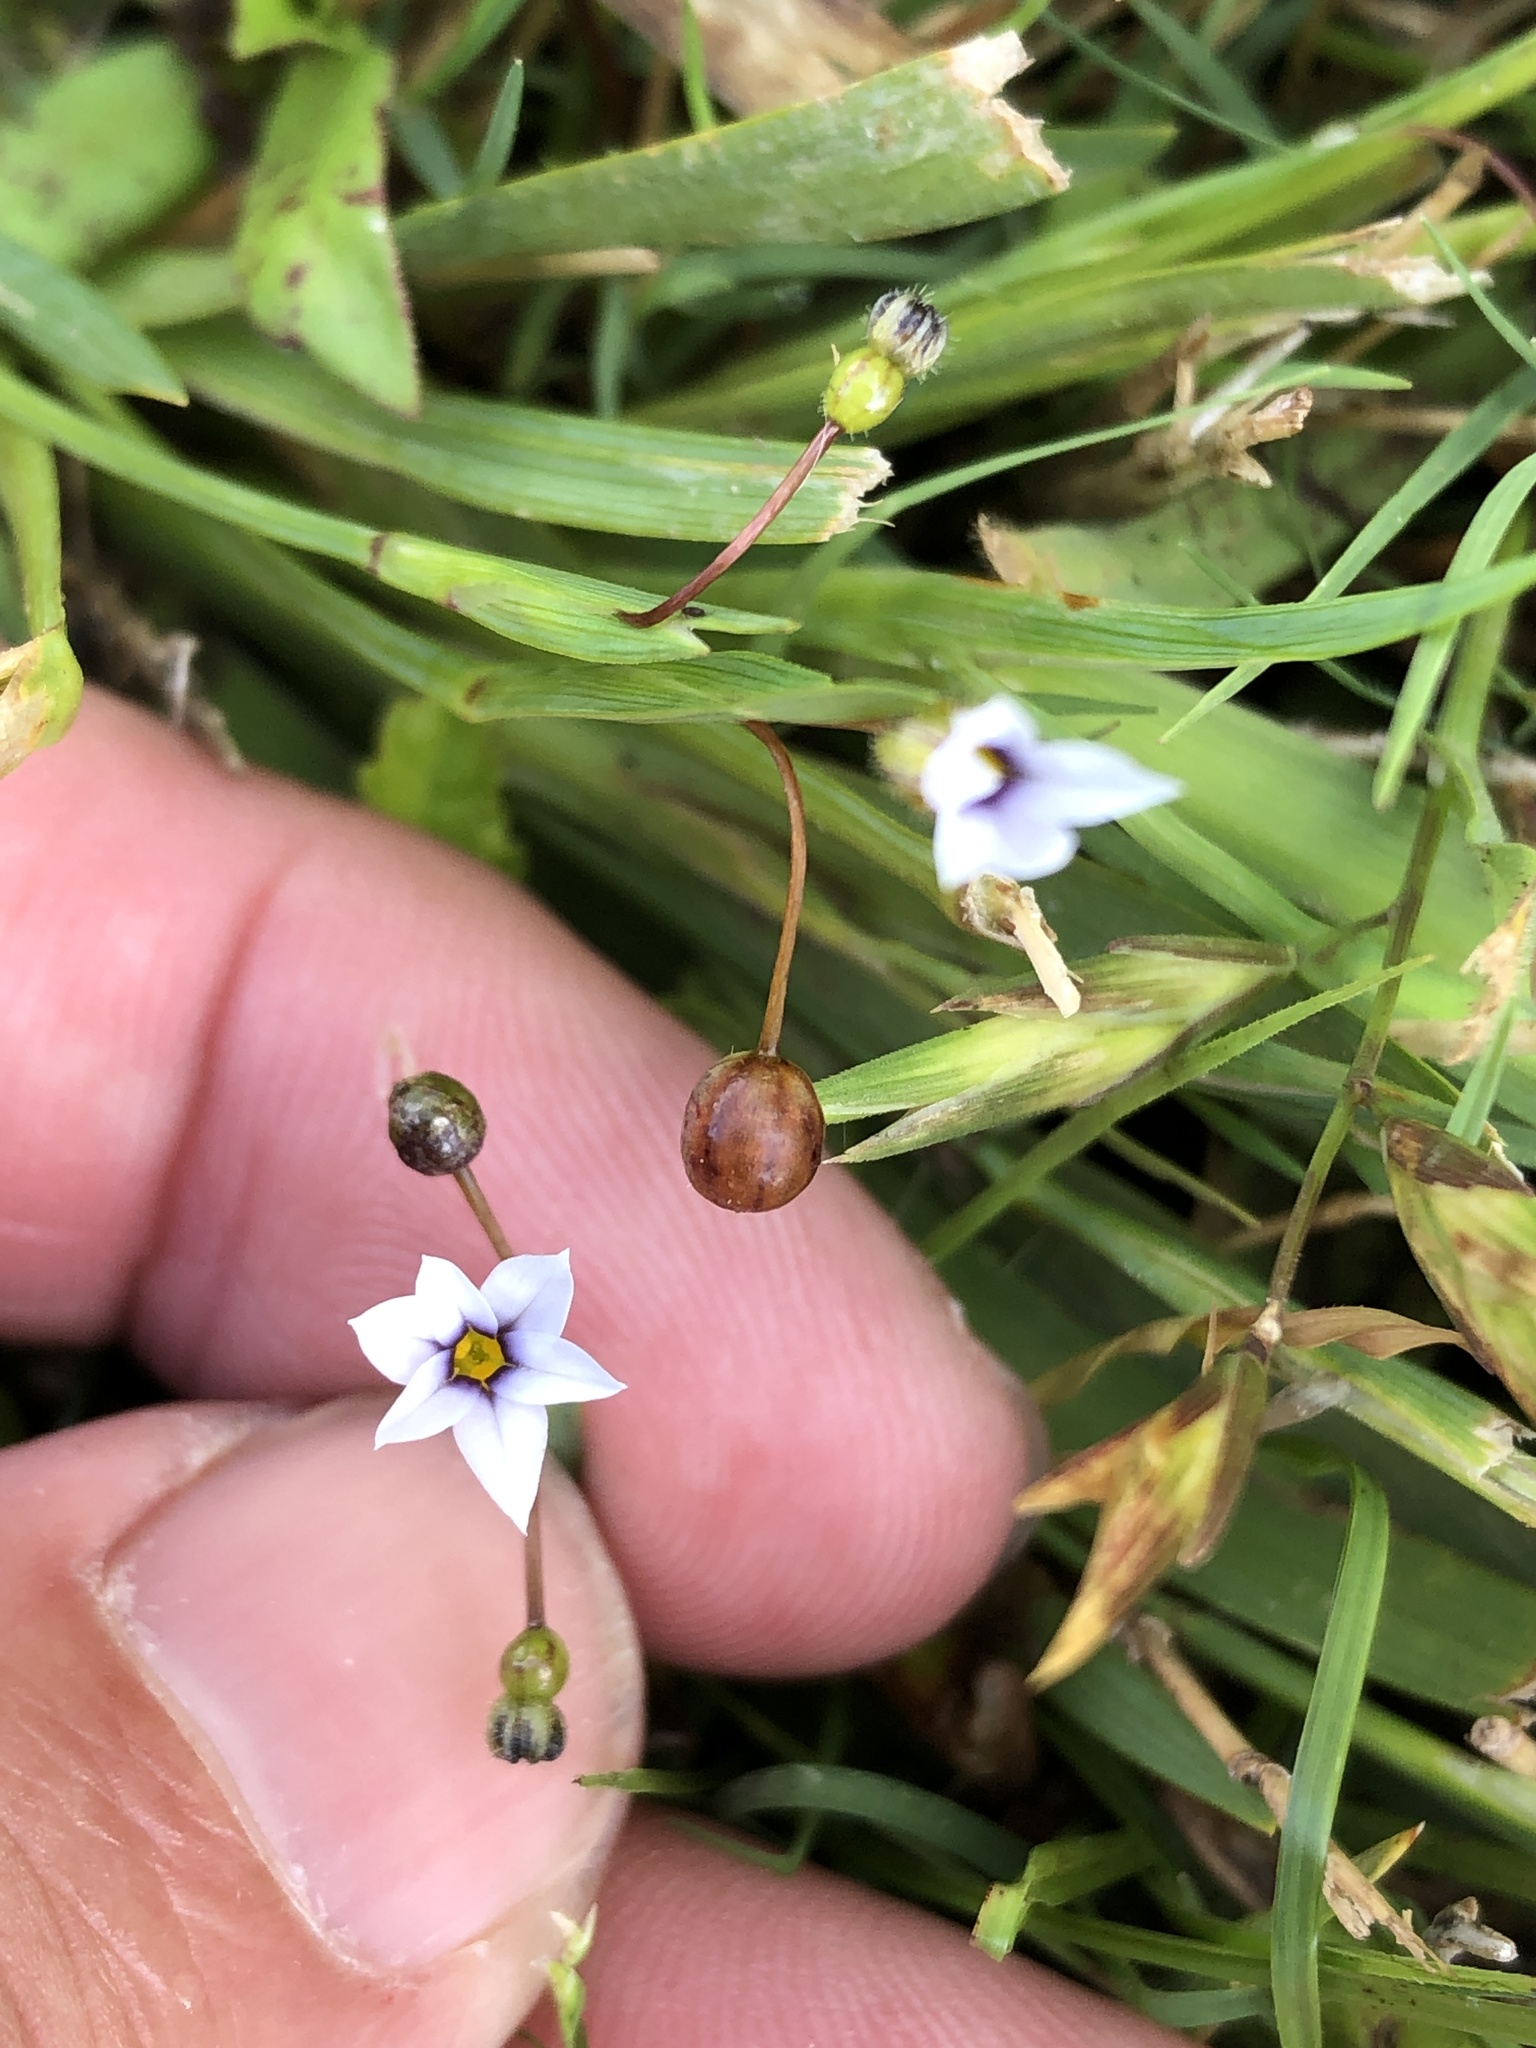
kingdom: Plantae
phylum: Tracheophyta
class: Liliopsida
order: Asparagales
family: Iridaceae
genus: Sisyrinchium
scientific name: Sisyrinchium micranthum
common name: Bermuda pigroot
